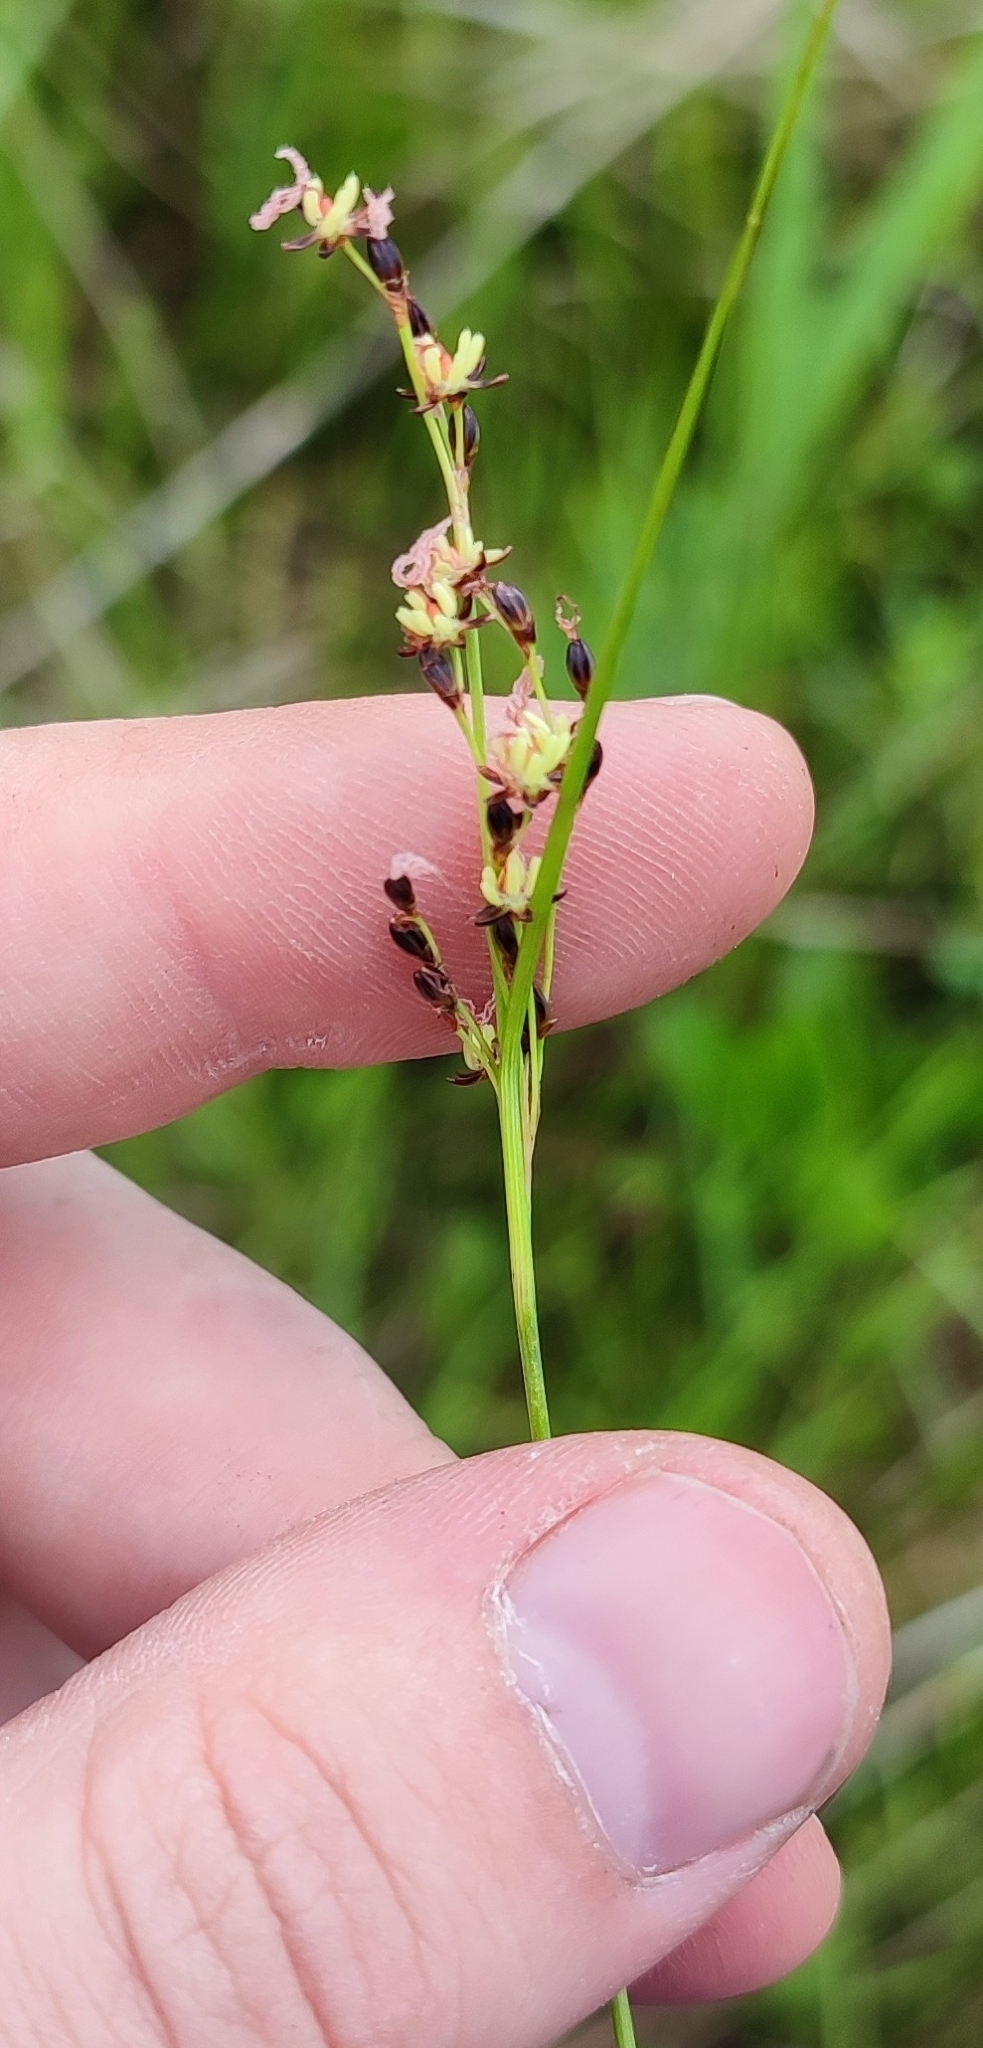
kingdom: Plantae
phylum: Tracheophyta
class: Liliopsida
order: Poales
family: Juncaceae
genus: Juncus
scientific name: Juncus gerardi
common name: Saltmarsh rush
